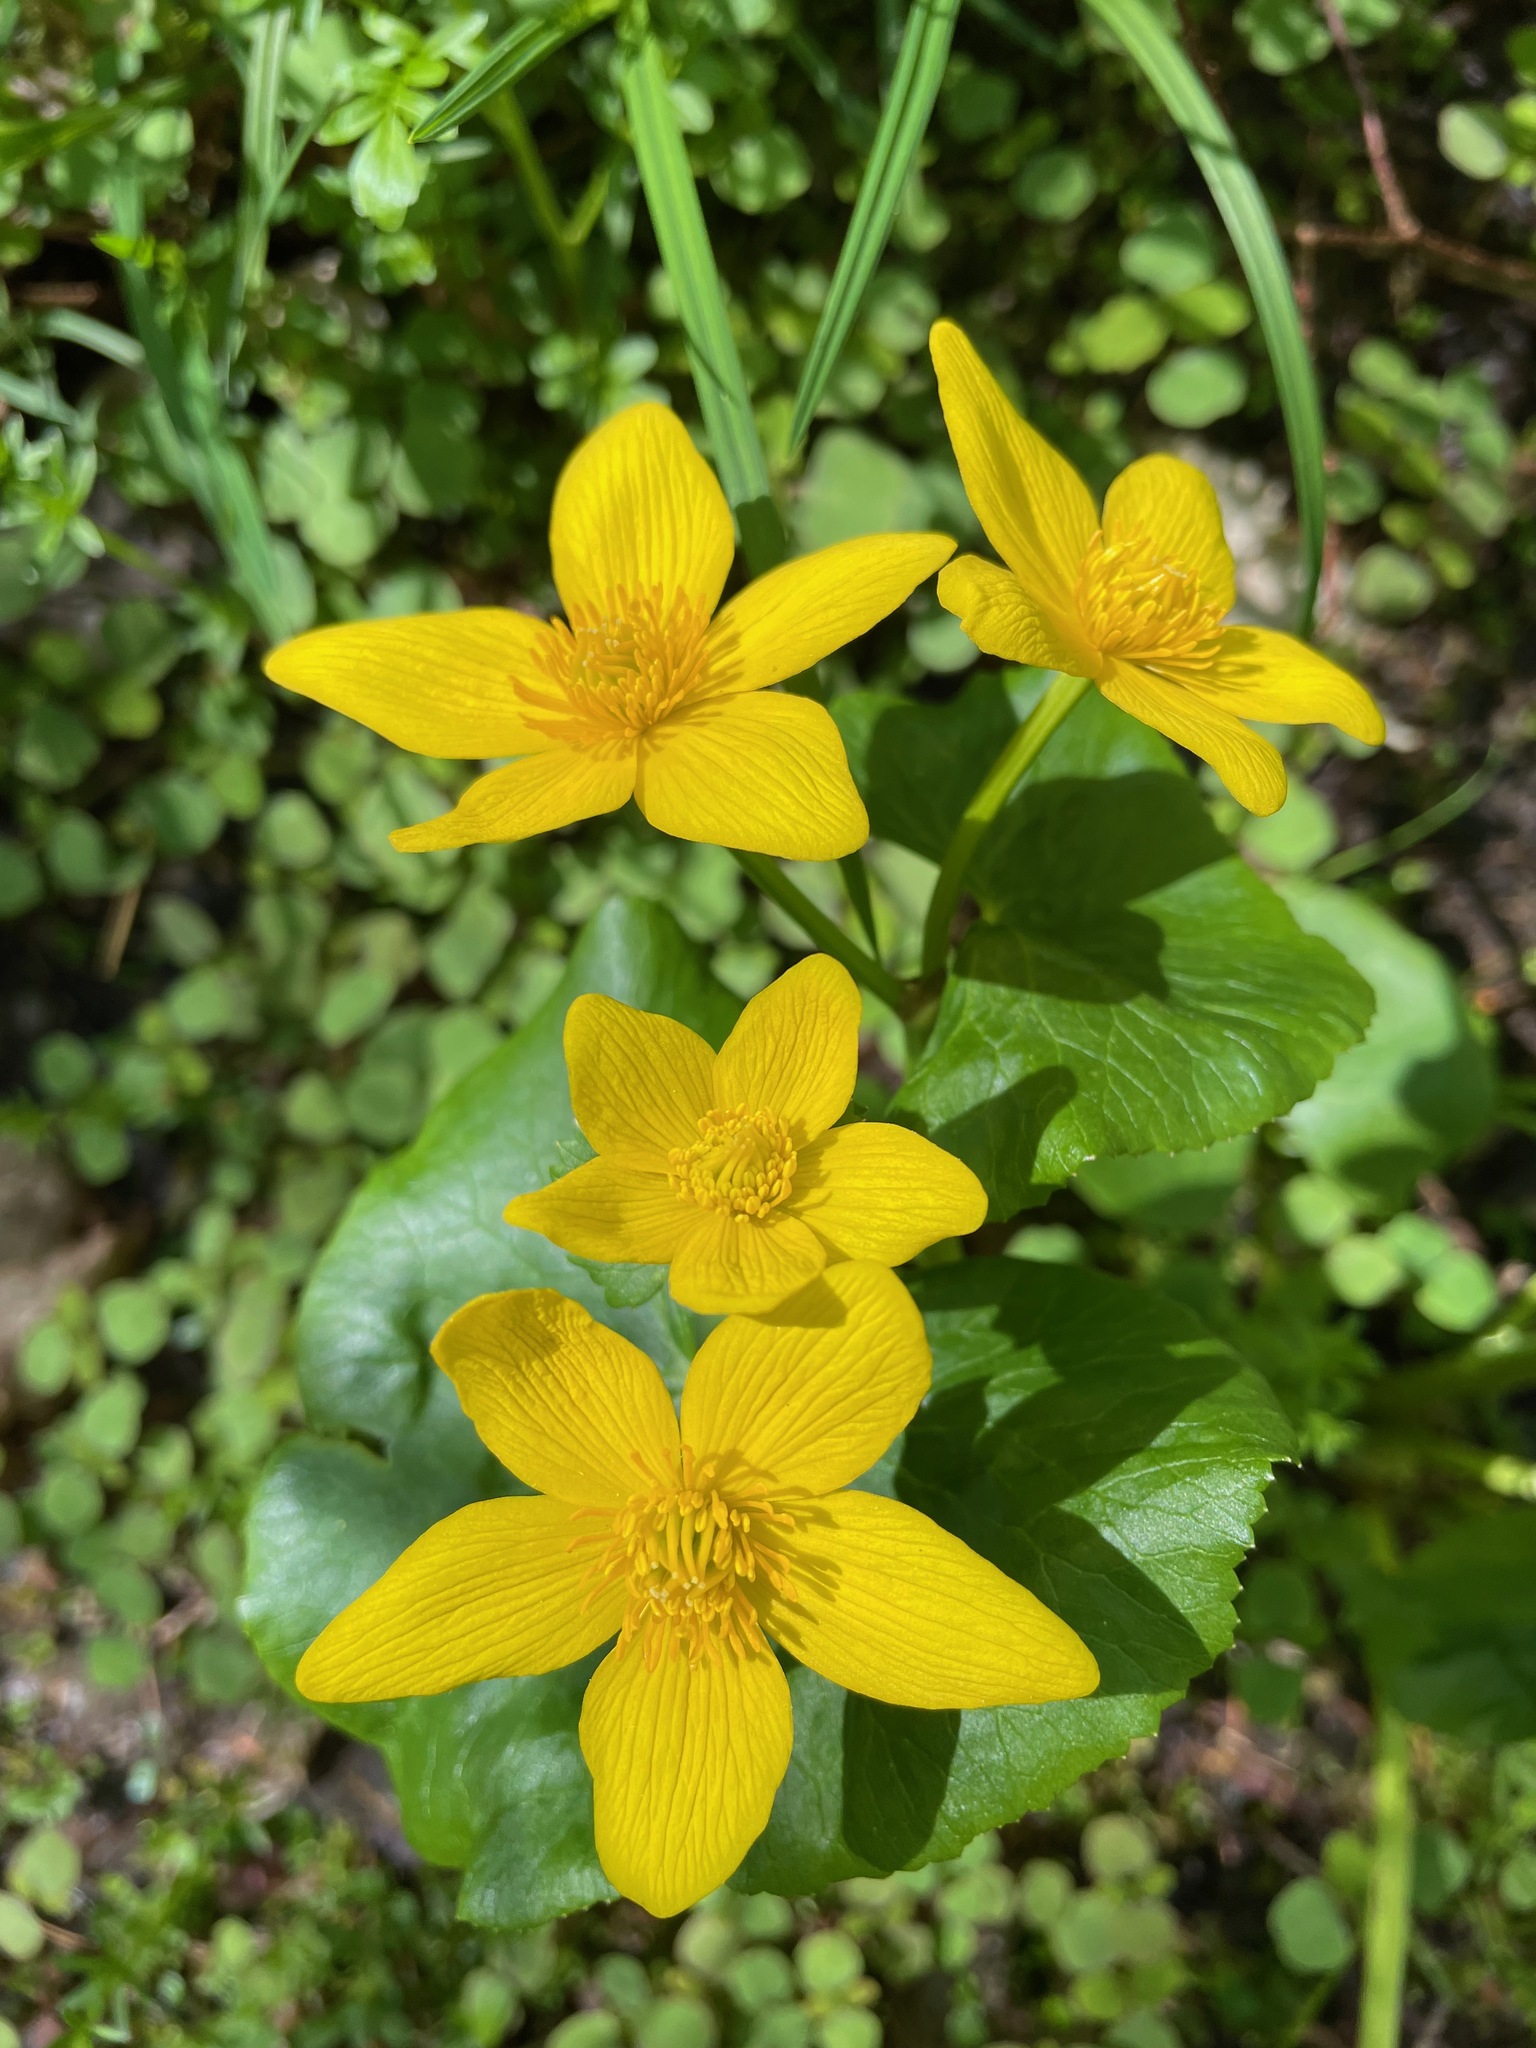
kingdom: Plantae
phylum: Tracheophyta
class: Magnoliopsida
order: Ranunculales
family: Ranunculaceae
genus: Caltha
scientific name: Caltha palustris
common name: Marsh marigold
